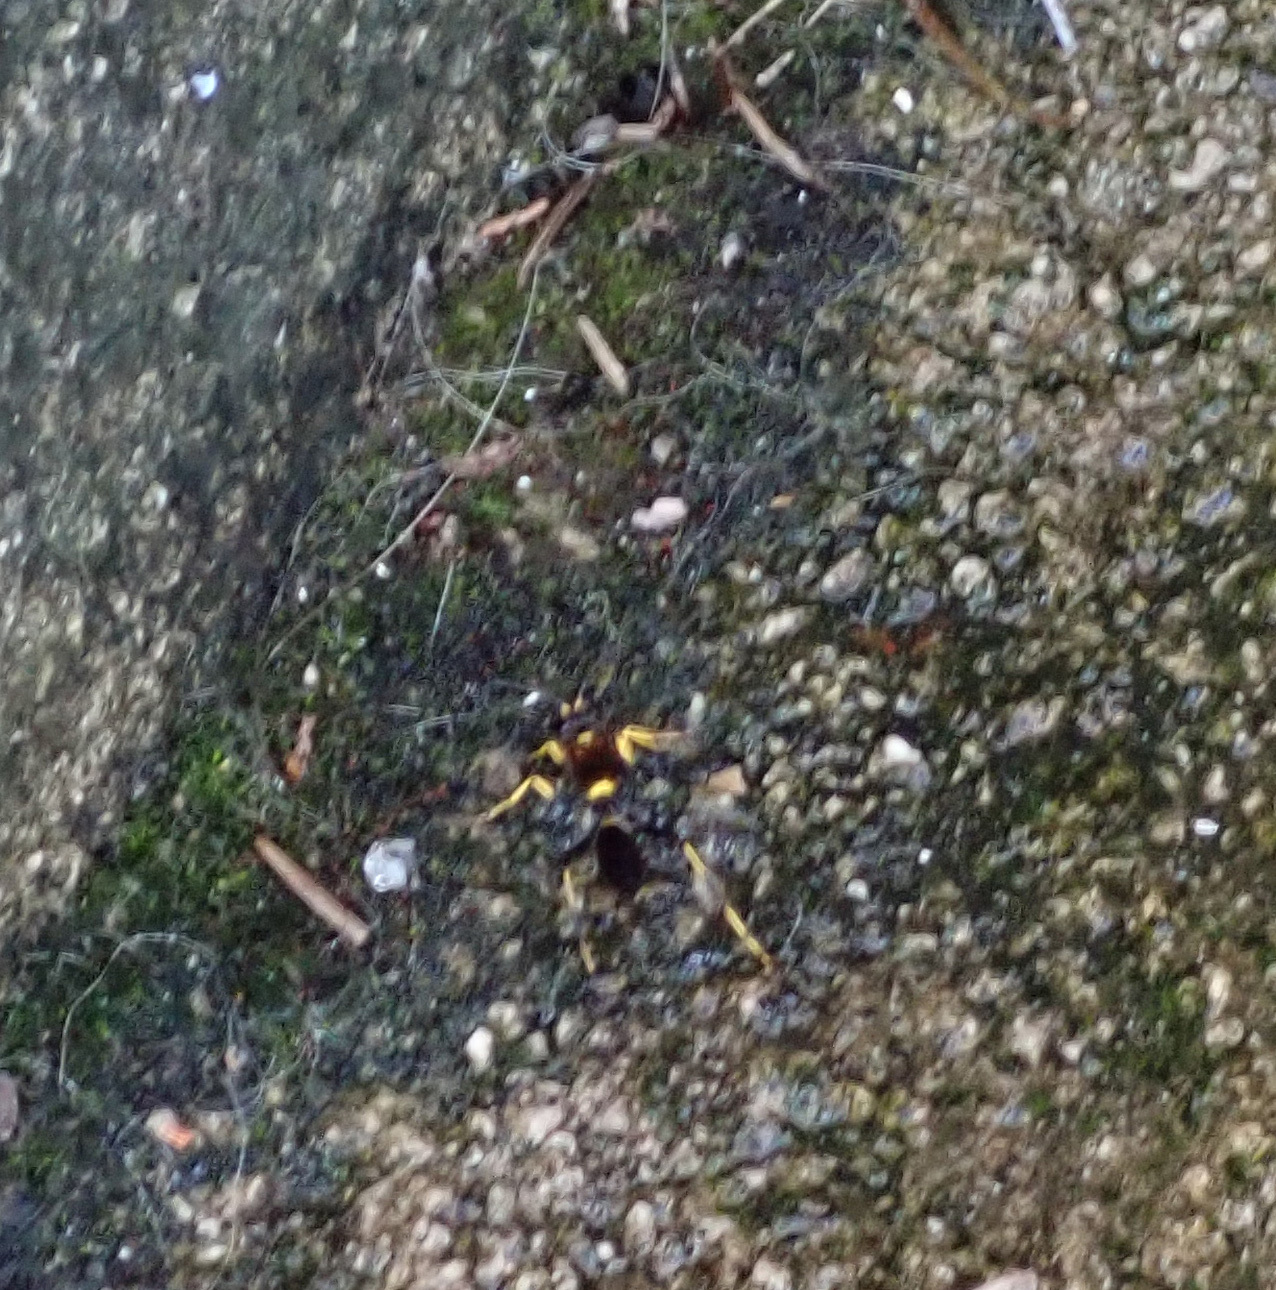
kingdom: Animalia
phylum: Arthropoda
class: Insecta
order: Hymenoptera
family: Sphecidae
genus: Sceliphron
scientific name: Sceliphron caementarium
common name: Mud dauber
